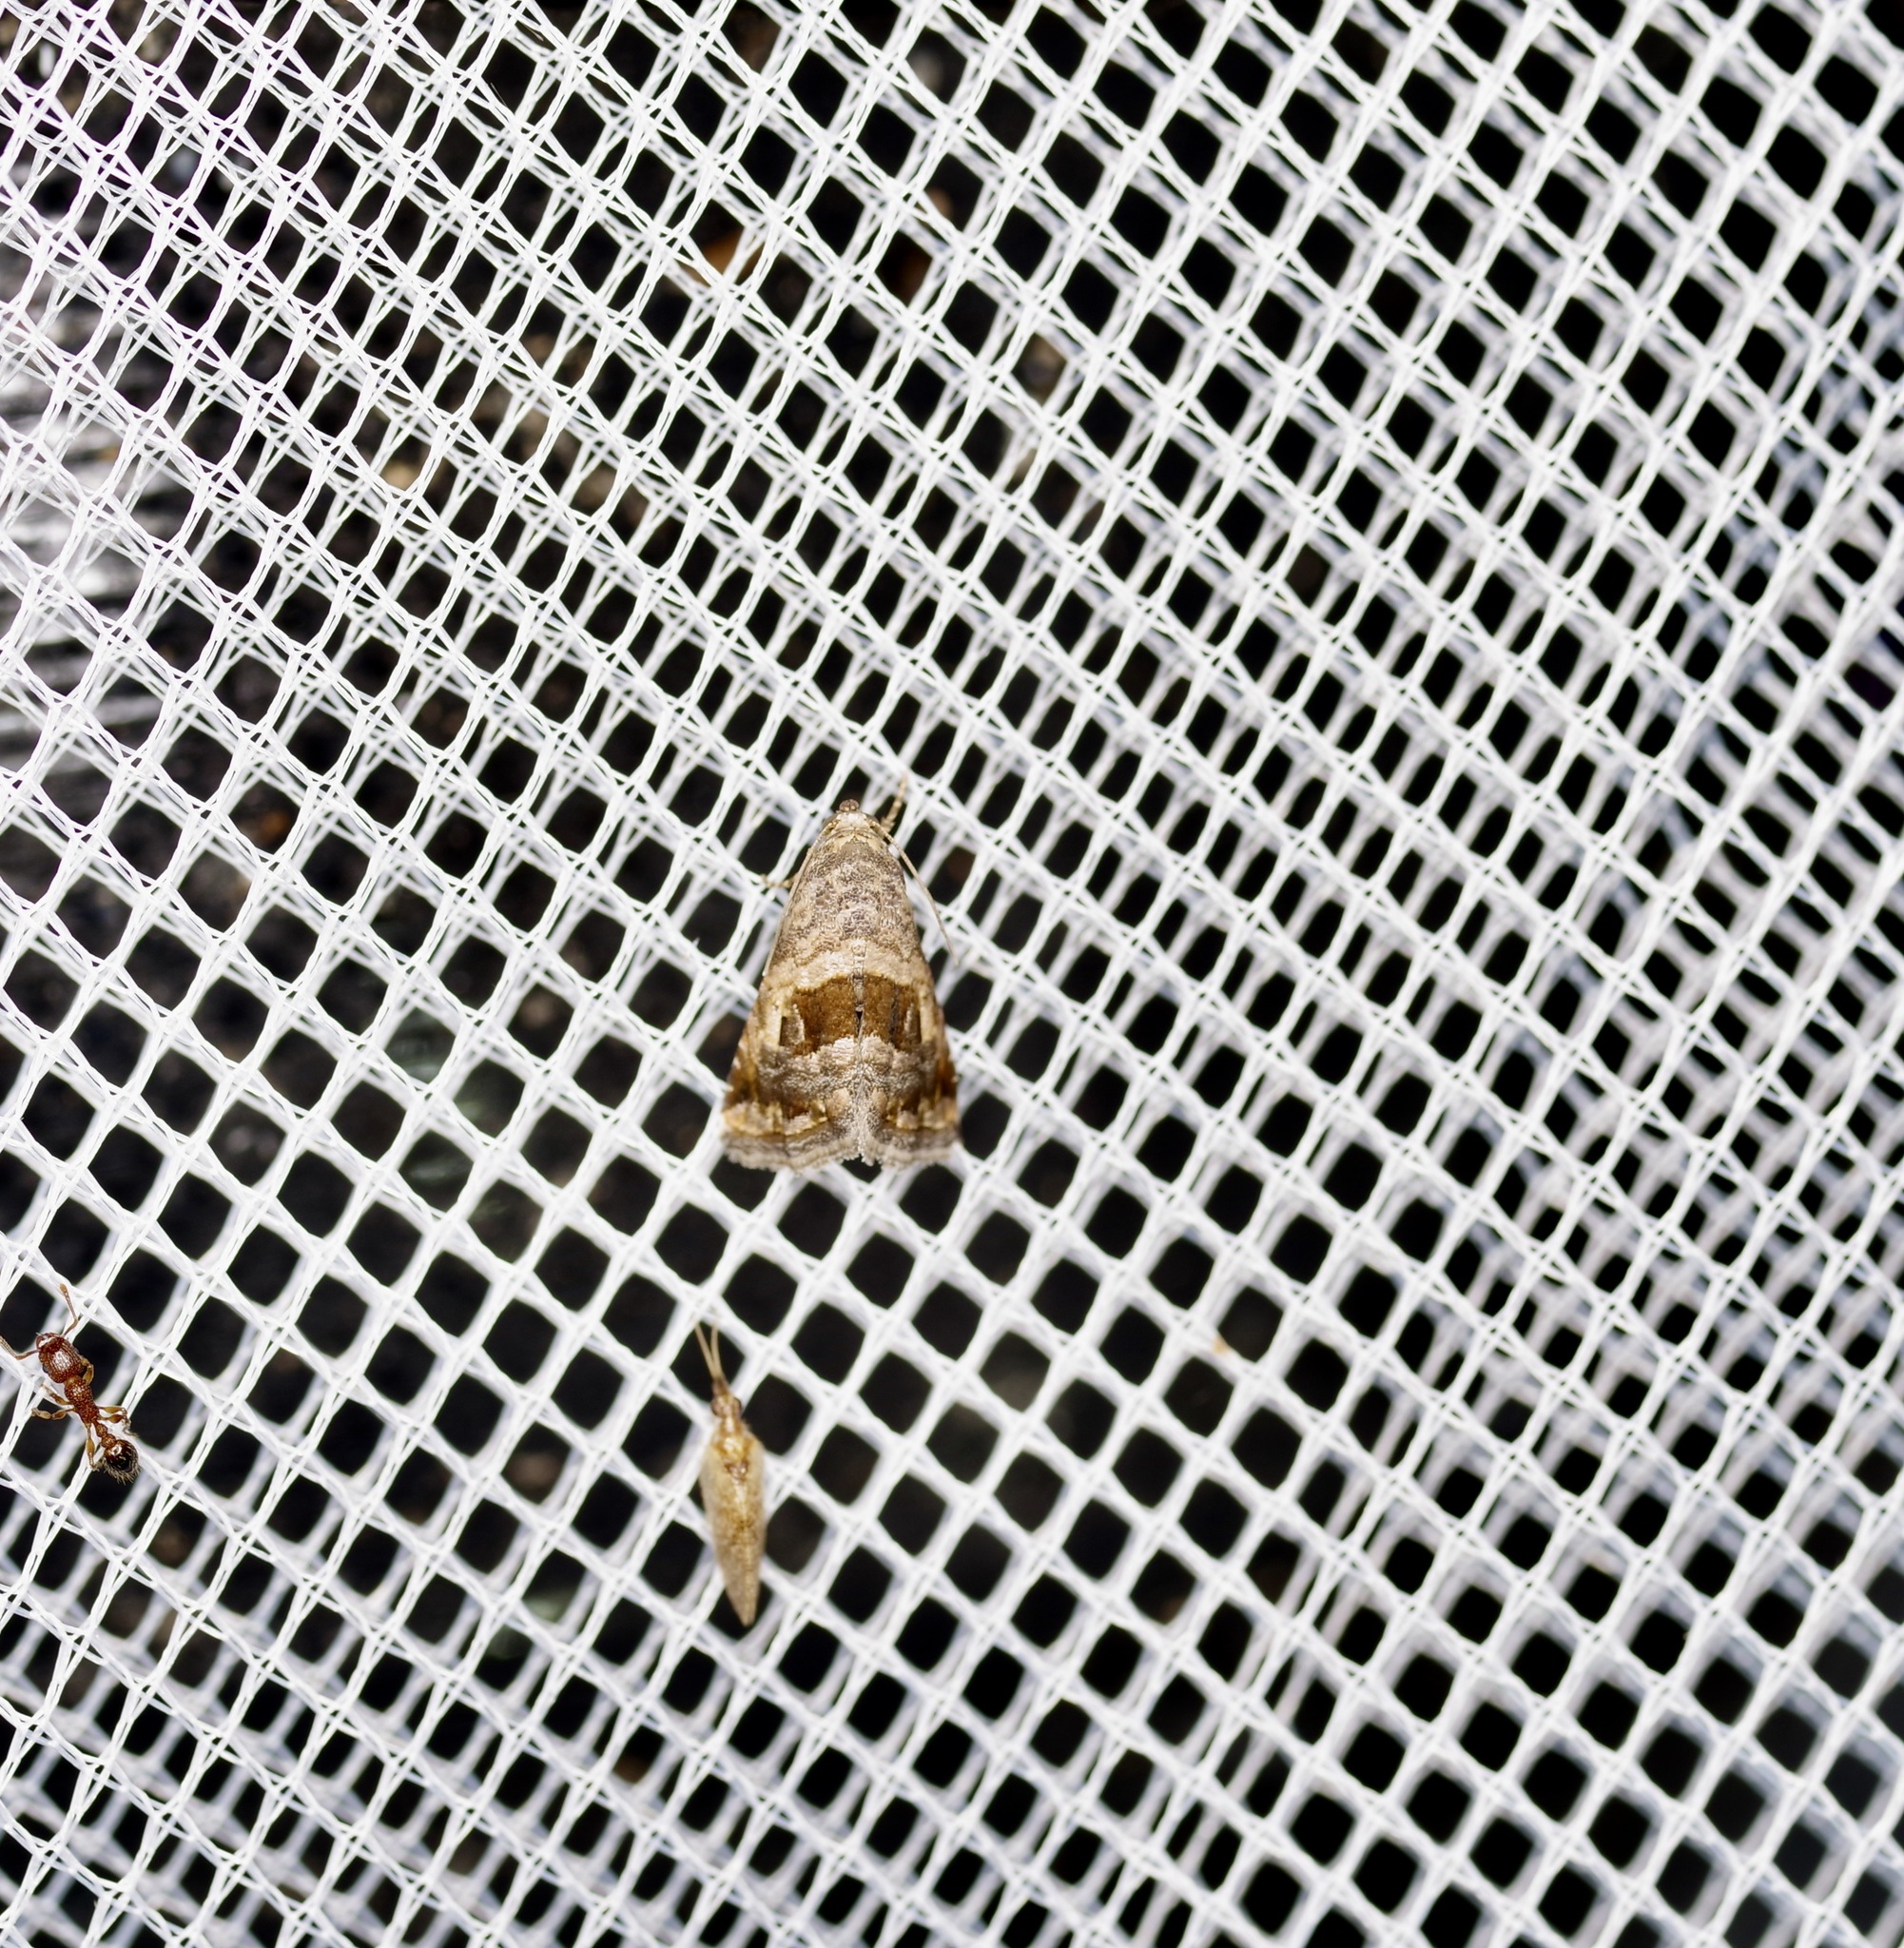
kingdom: Animalia
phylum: Arthropoda
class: Insecta
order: Lepidoptera
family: Noctuidae
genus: Tripudia
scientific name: Tripudia quadrifera
